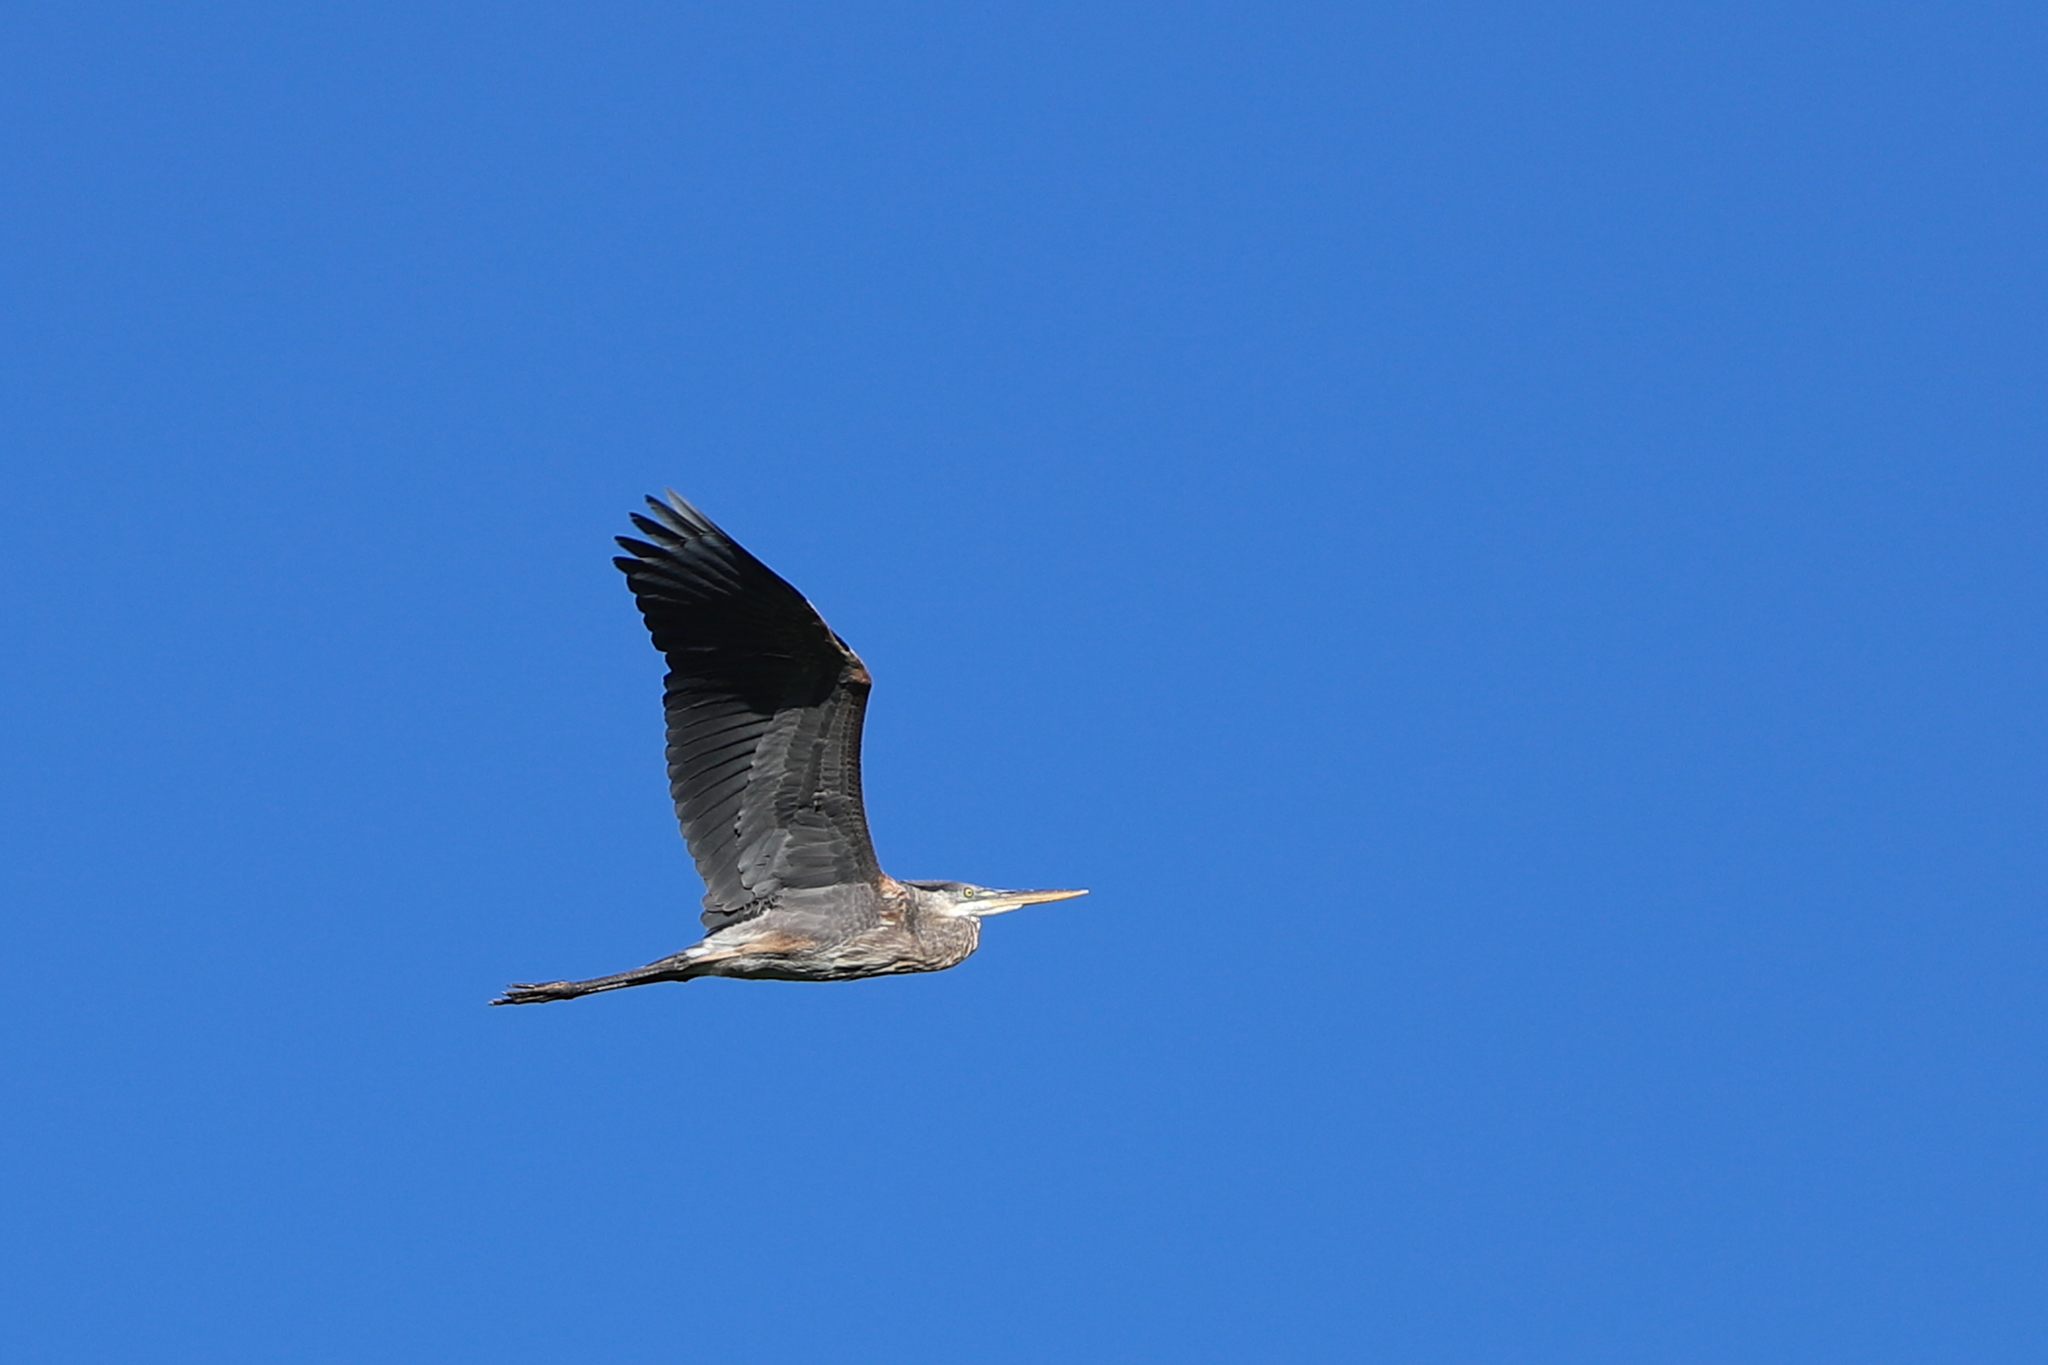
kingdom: Animalia
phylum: Chordata
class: Aves
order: Pelecaniformes
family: Ardeidae
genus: Ardea
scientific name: Ardea herodias
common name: Great blue heron
